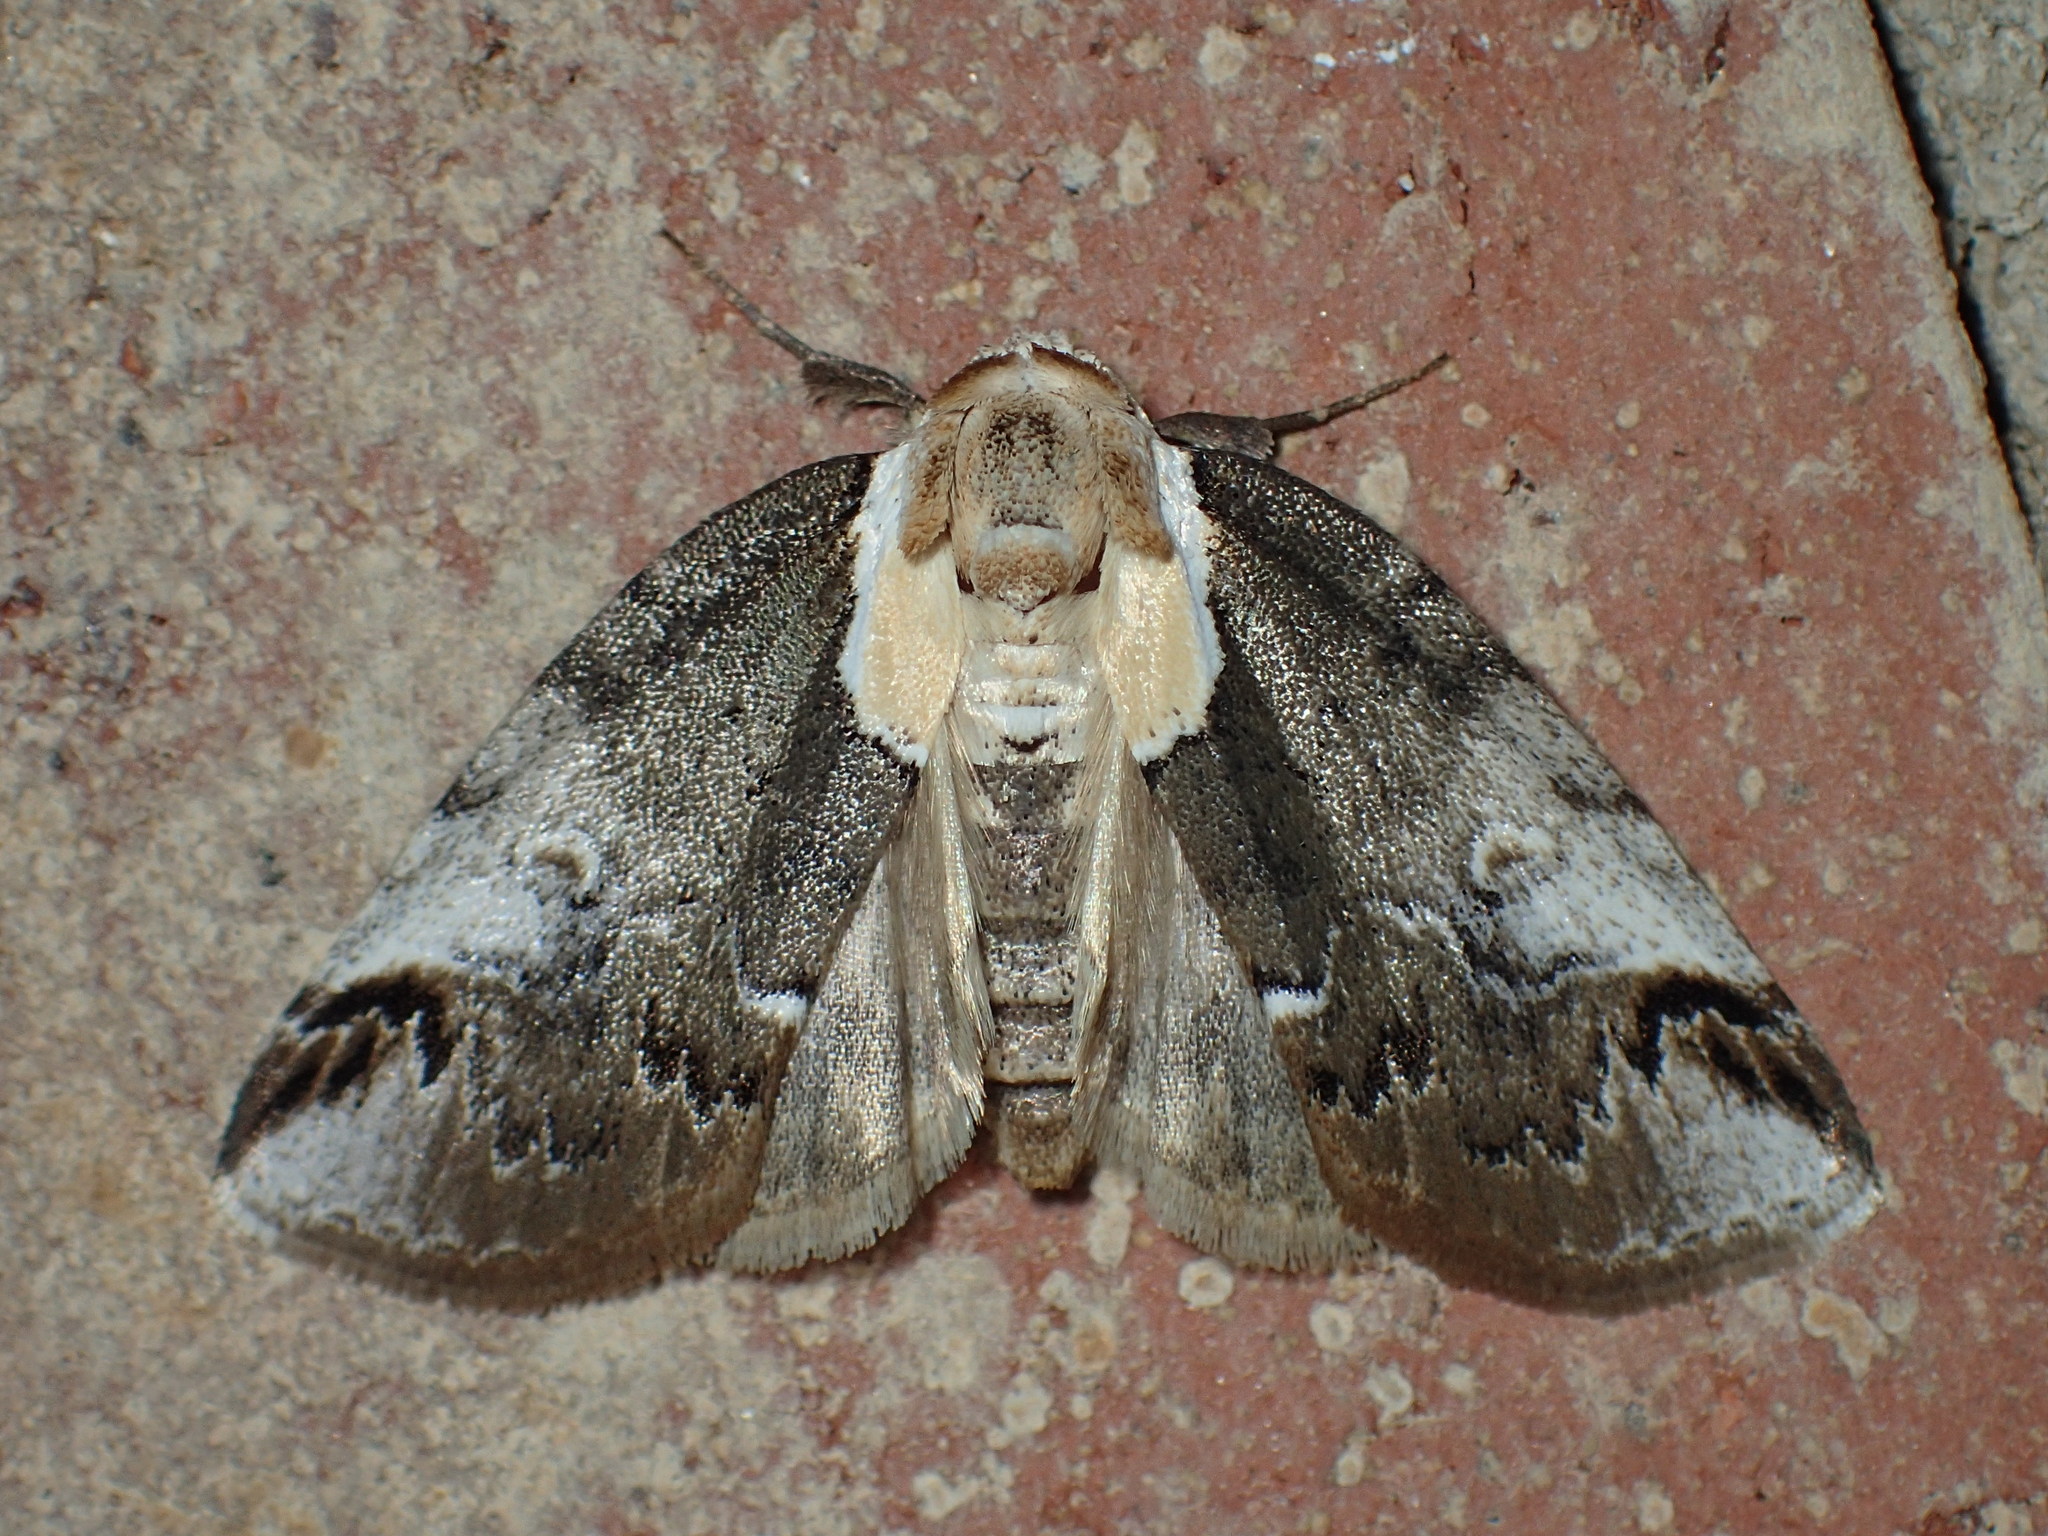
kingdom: Animalia
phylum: Arthropoda
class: Insecta
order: Lepidoptera
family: Nolidae
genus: Baileya
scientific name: Baileya ophthalmica
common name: Eyed baileya moth
